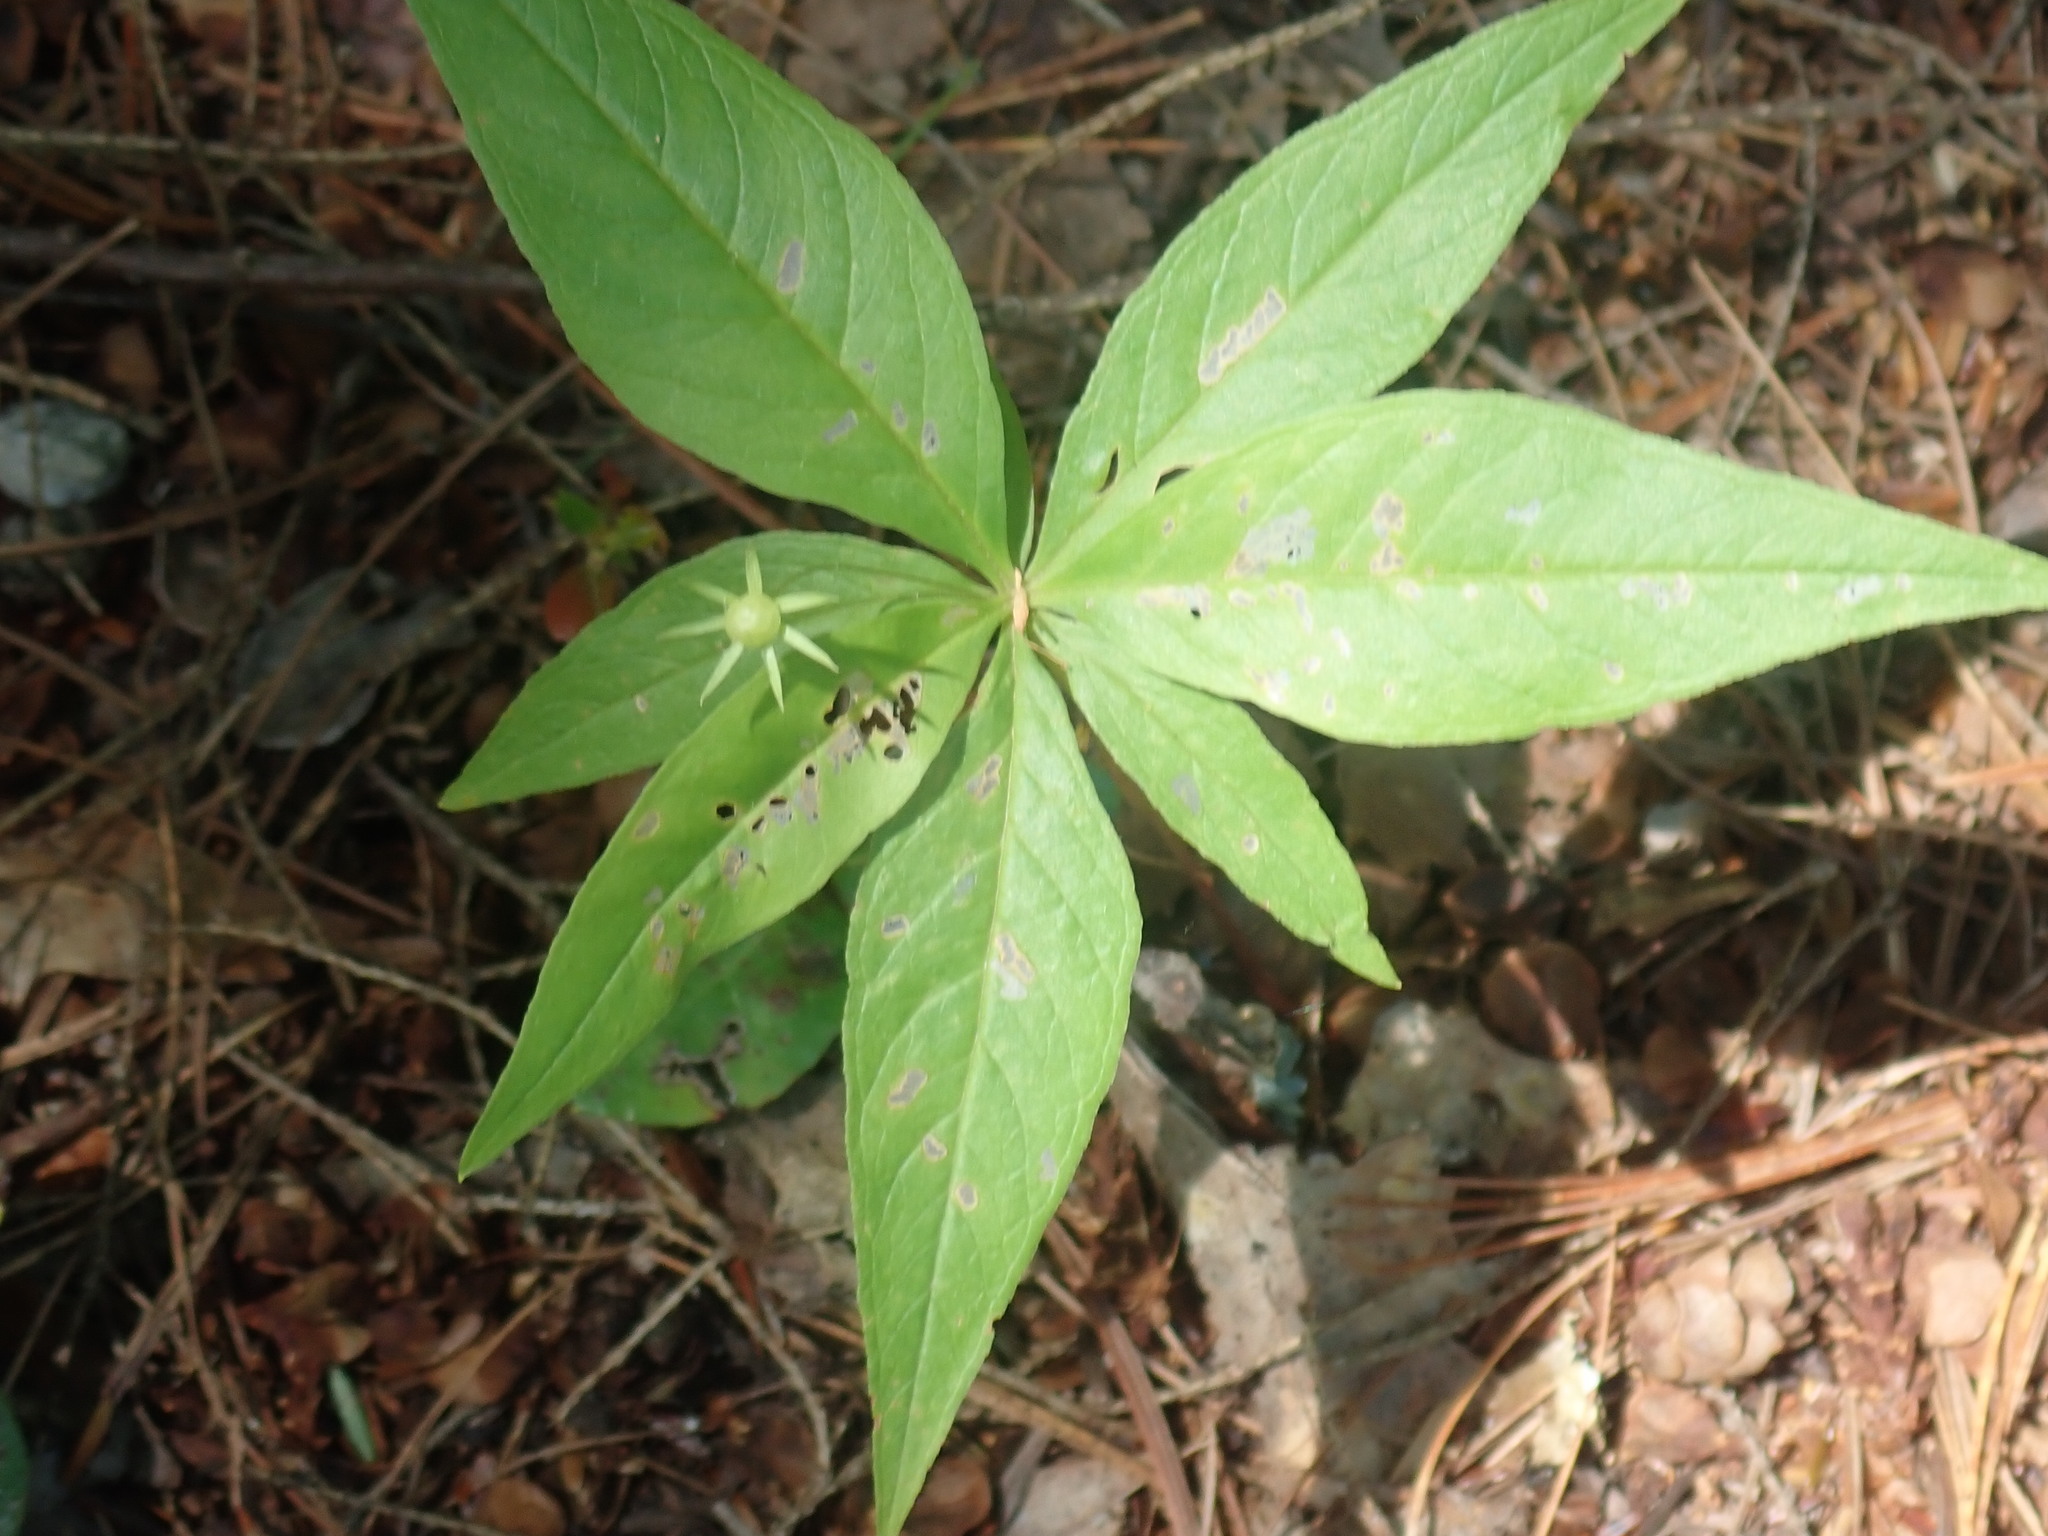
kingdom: Plantae
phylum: Tracheophyta
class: Magnoliopsida
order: Ericales
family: Primulaceae
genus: Lysimachia
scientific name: Lysimachia borealis
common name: American starflower
